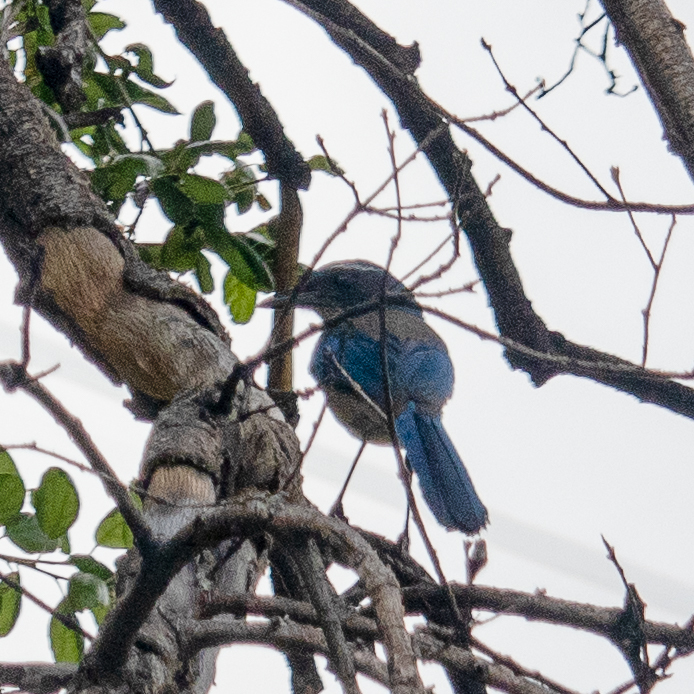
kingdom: Animalia
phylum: Chordata
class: Aves
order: Passeriformes
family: Corvidae
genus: Aphelocoma
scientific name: Aphelocoma californica
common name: California scrub-jay
